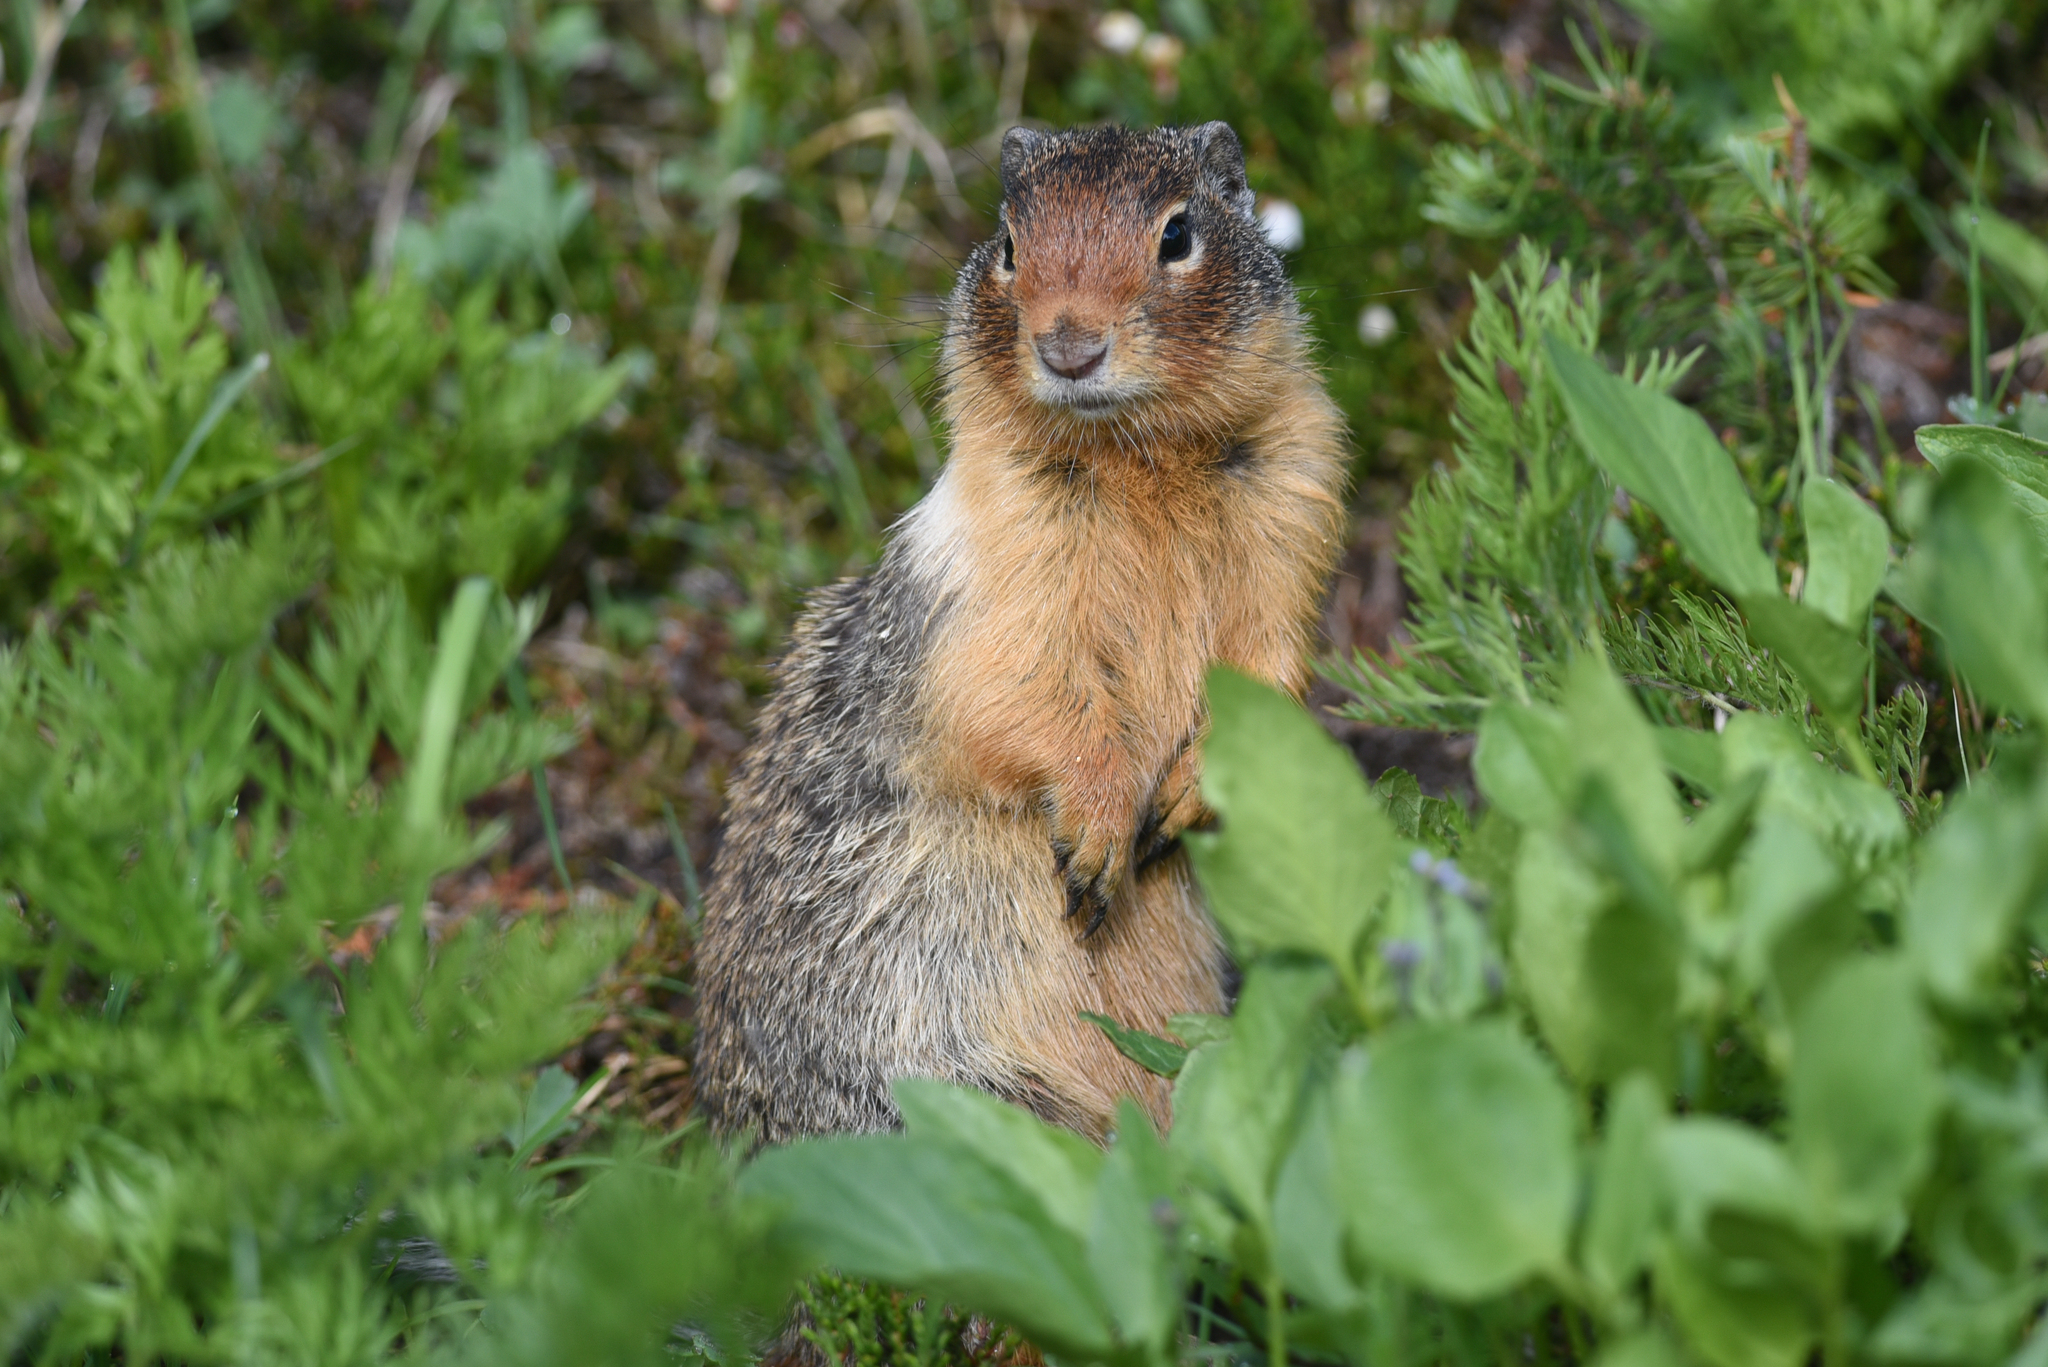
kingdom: Animalia
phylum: Chordata
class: Mammalia
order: Rodentia
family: Sciuridae
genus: Urocitellus
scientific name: Urocitellus columbianus
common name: Columbian ground squirrel
